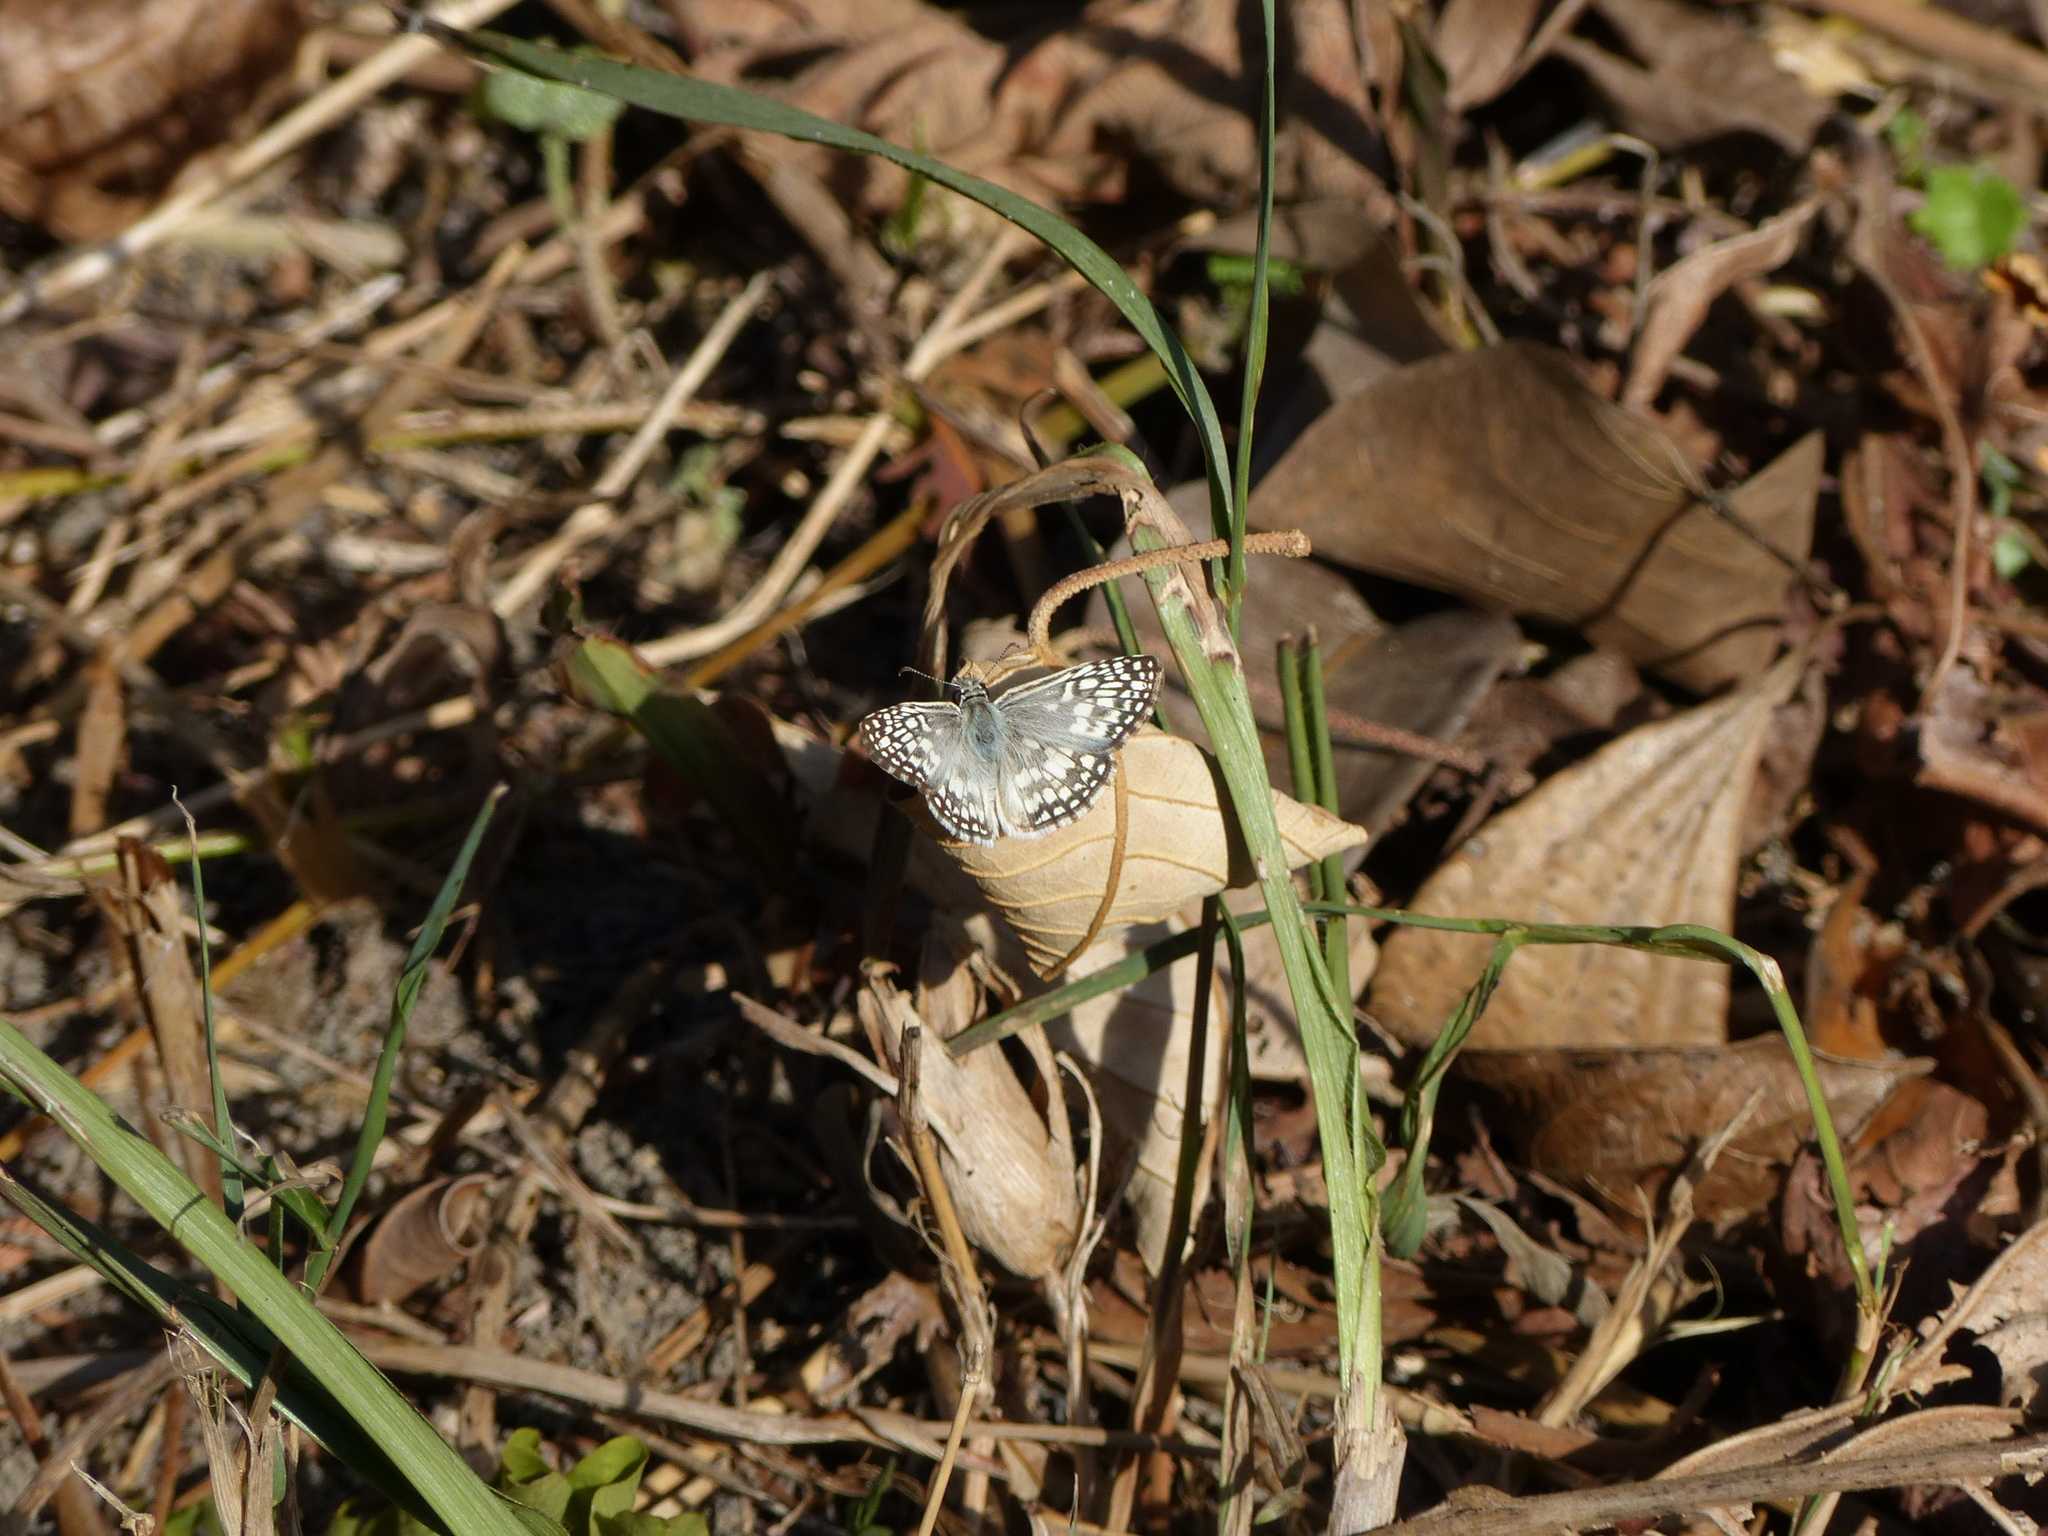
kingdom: Animalia
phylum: Arthropoda
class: Insecta
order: Lepidoptera
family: Hesperiidae
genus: Pyrgus
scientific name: Pyrgus oileus
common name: Tropical checkered-skipper
